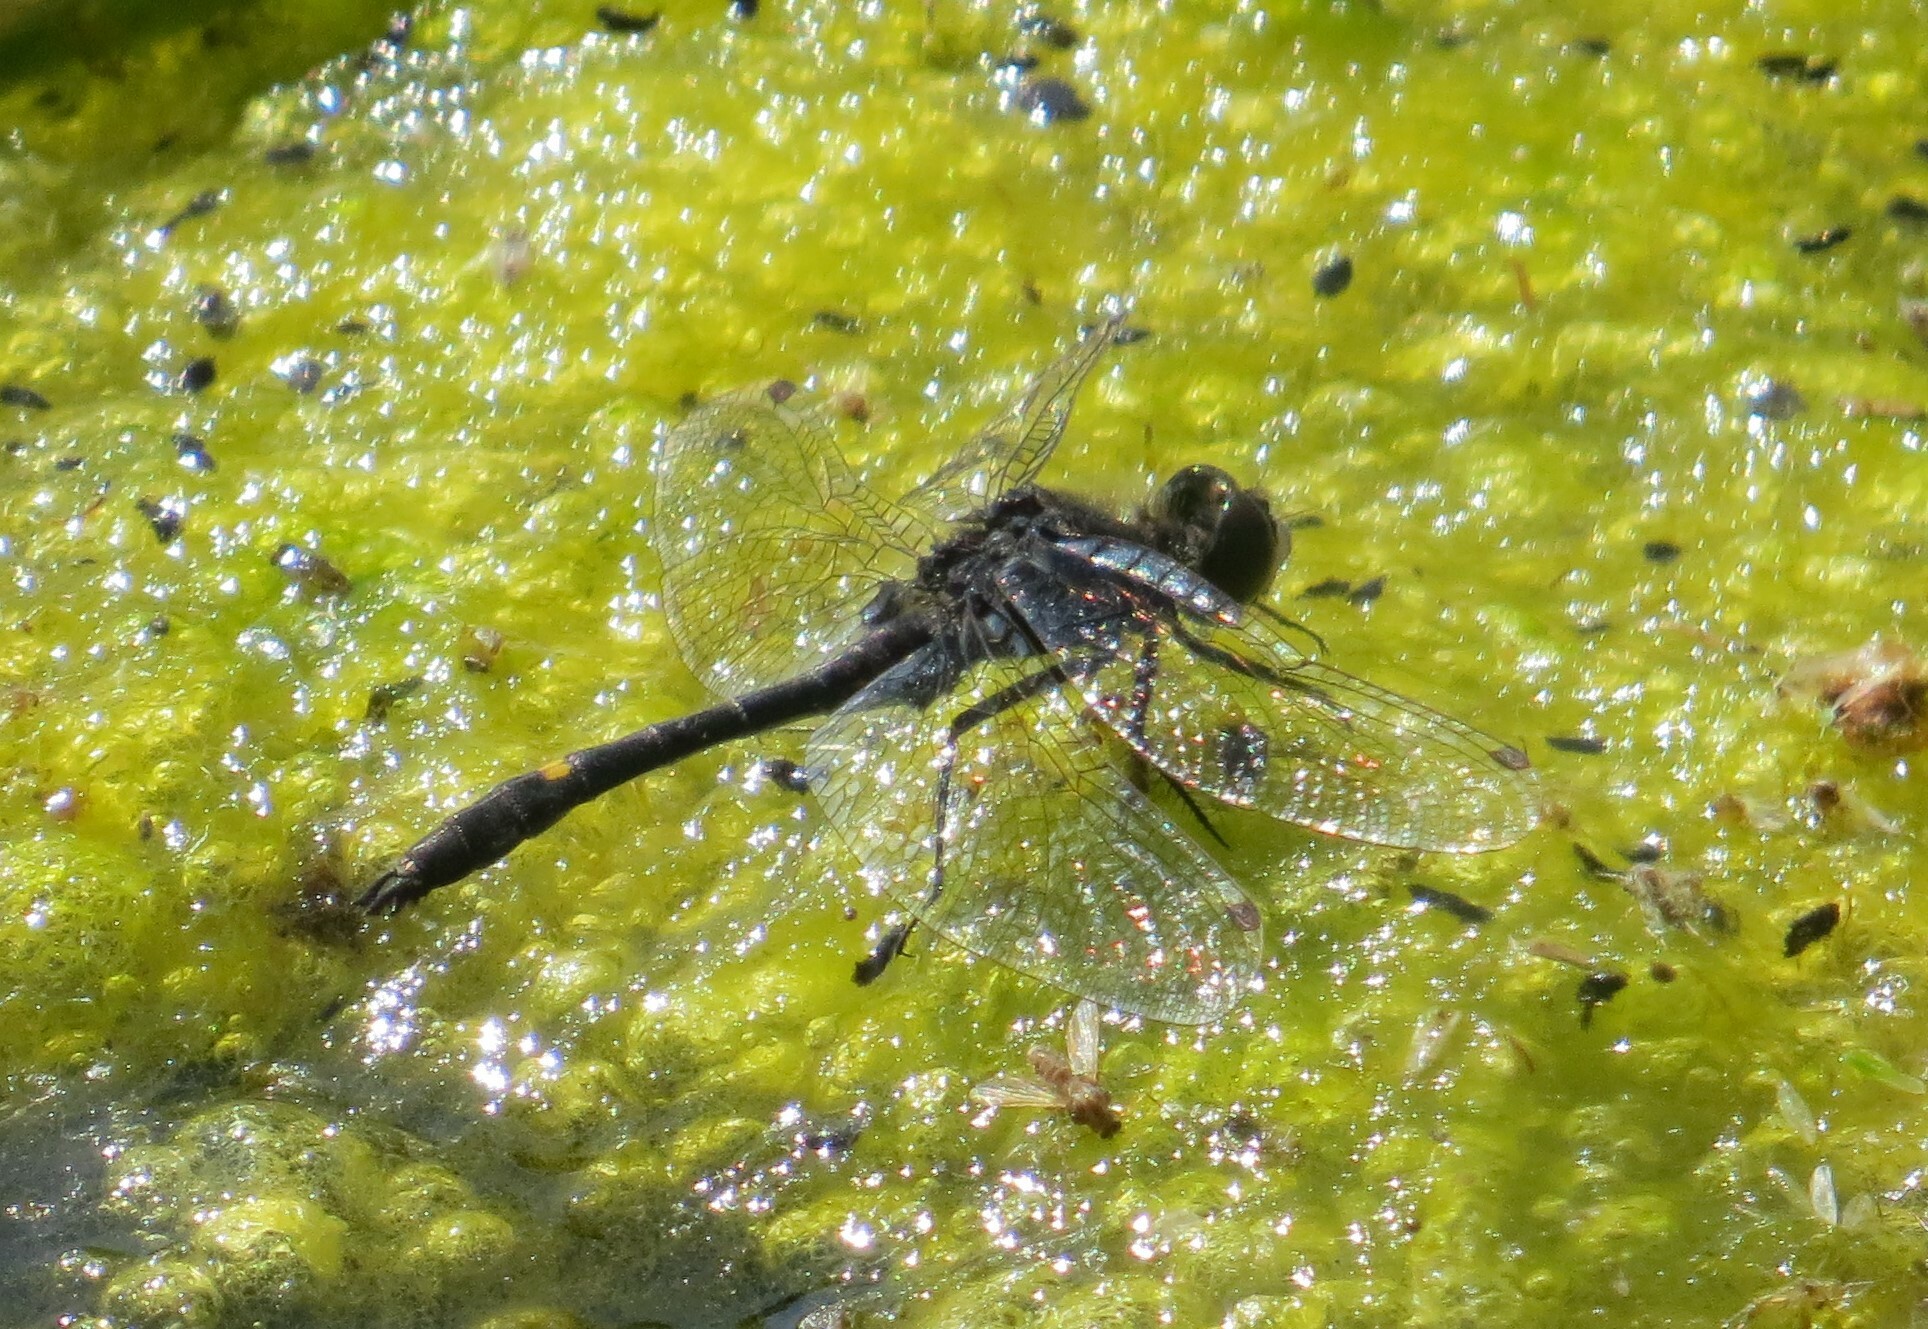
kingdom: Animalia
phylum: Arthropoda
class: Insecta
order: Odonata
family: Libellulidae
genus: Leucorrhinia
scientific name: Leucorrhinia intacta
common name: Dot-tailed whiteface
